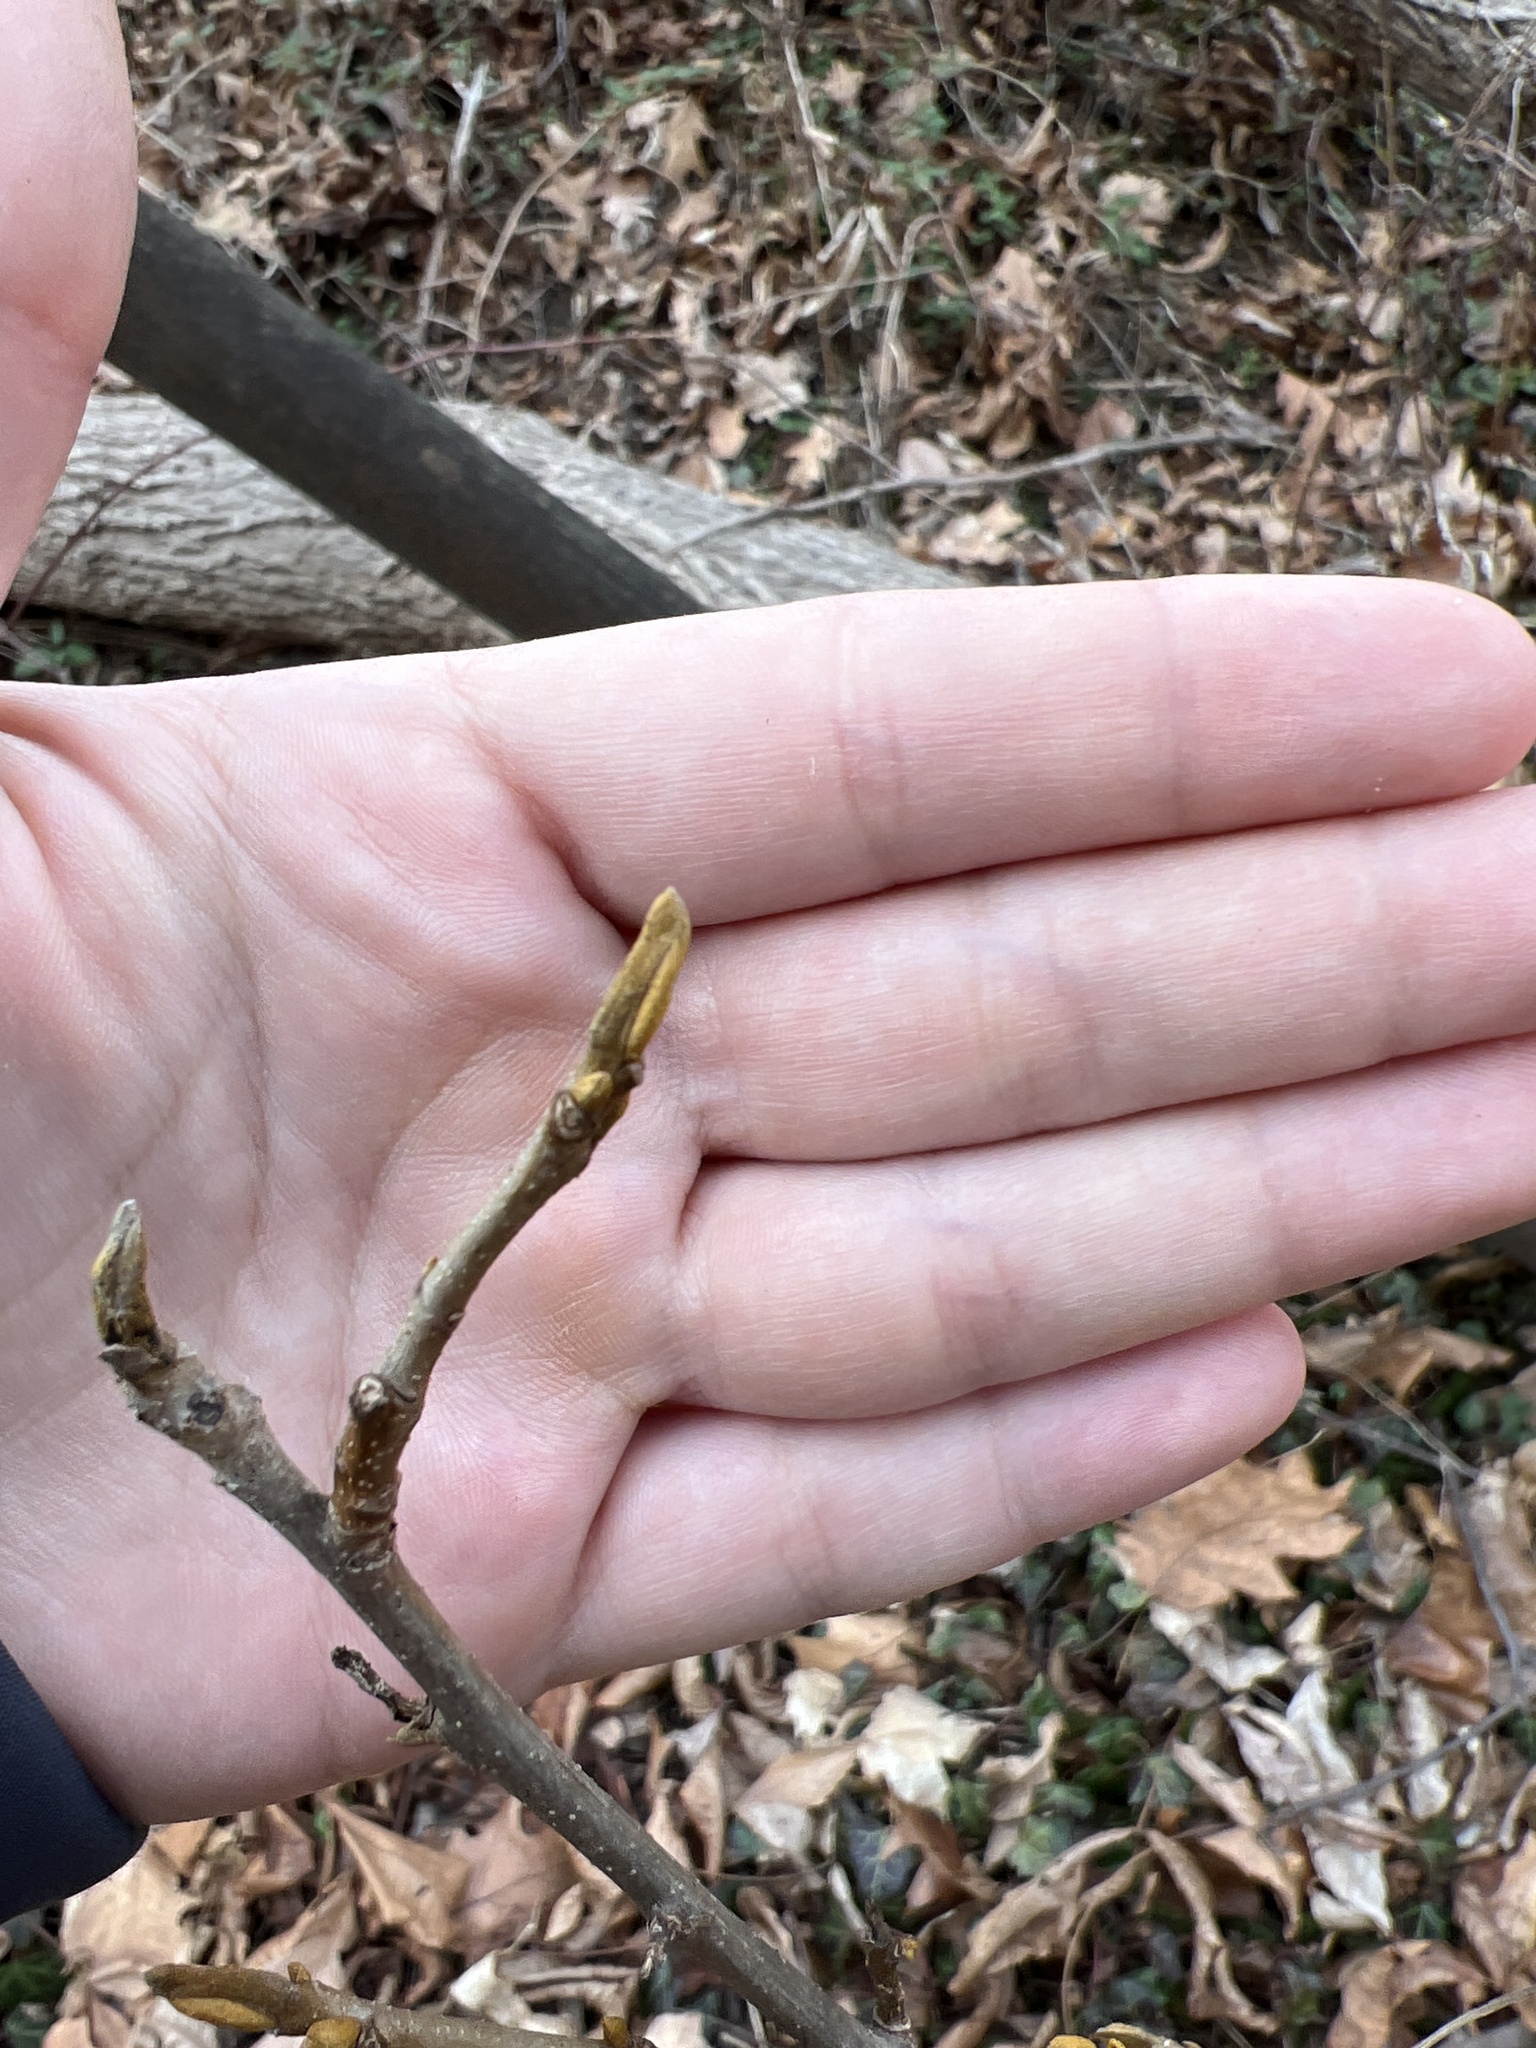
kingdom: Plantae
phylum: Tracheophyta
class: Magnoliopsida
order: Fagales
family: Juglandaceae
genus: Carya
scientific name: Carya cordiformis
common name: Bitternut hickory
